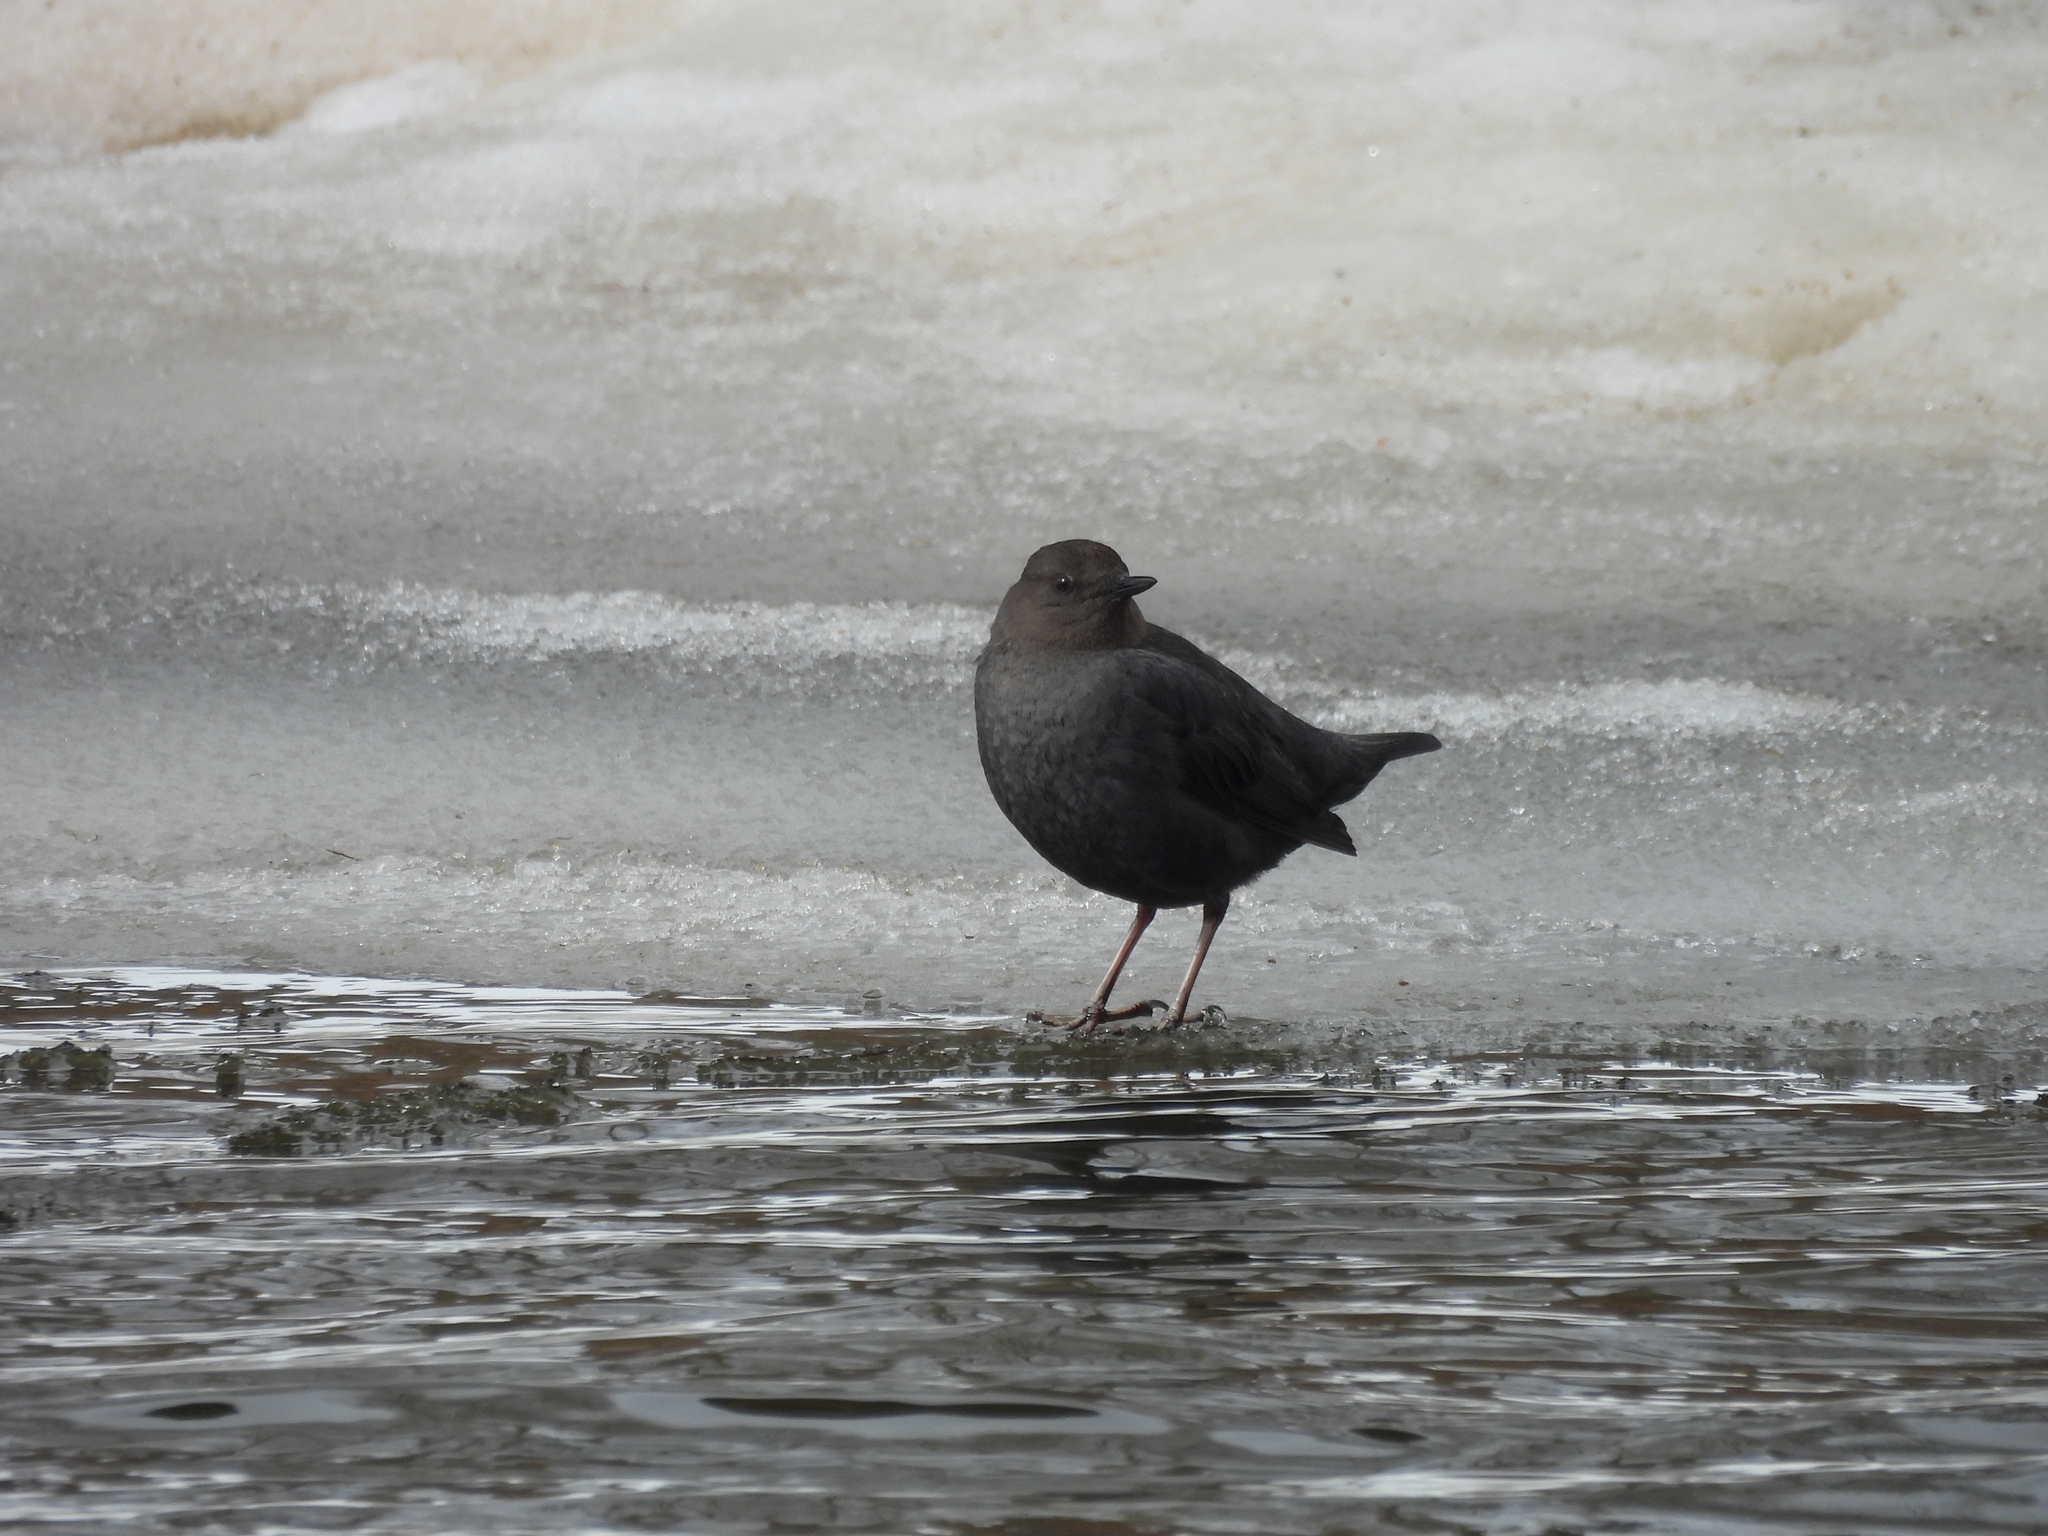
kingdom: Animalia
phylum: Chordata
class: Aves
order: Passeriformes
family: Cinclidae
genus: Cinclus
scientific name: Cinclus mexicanus
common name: American dipper
